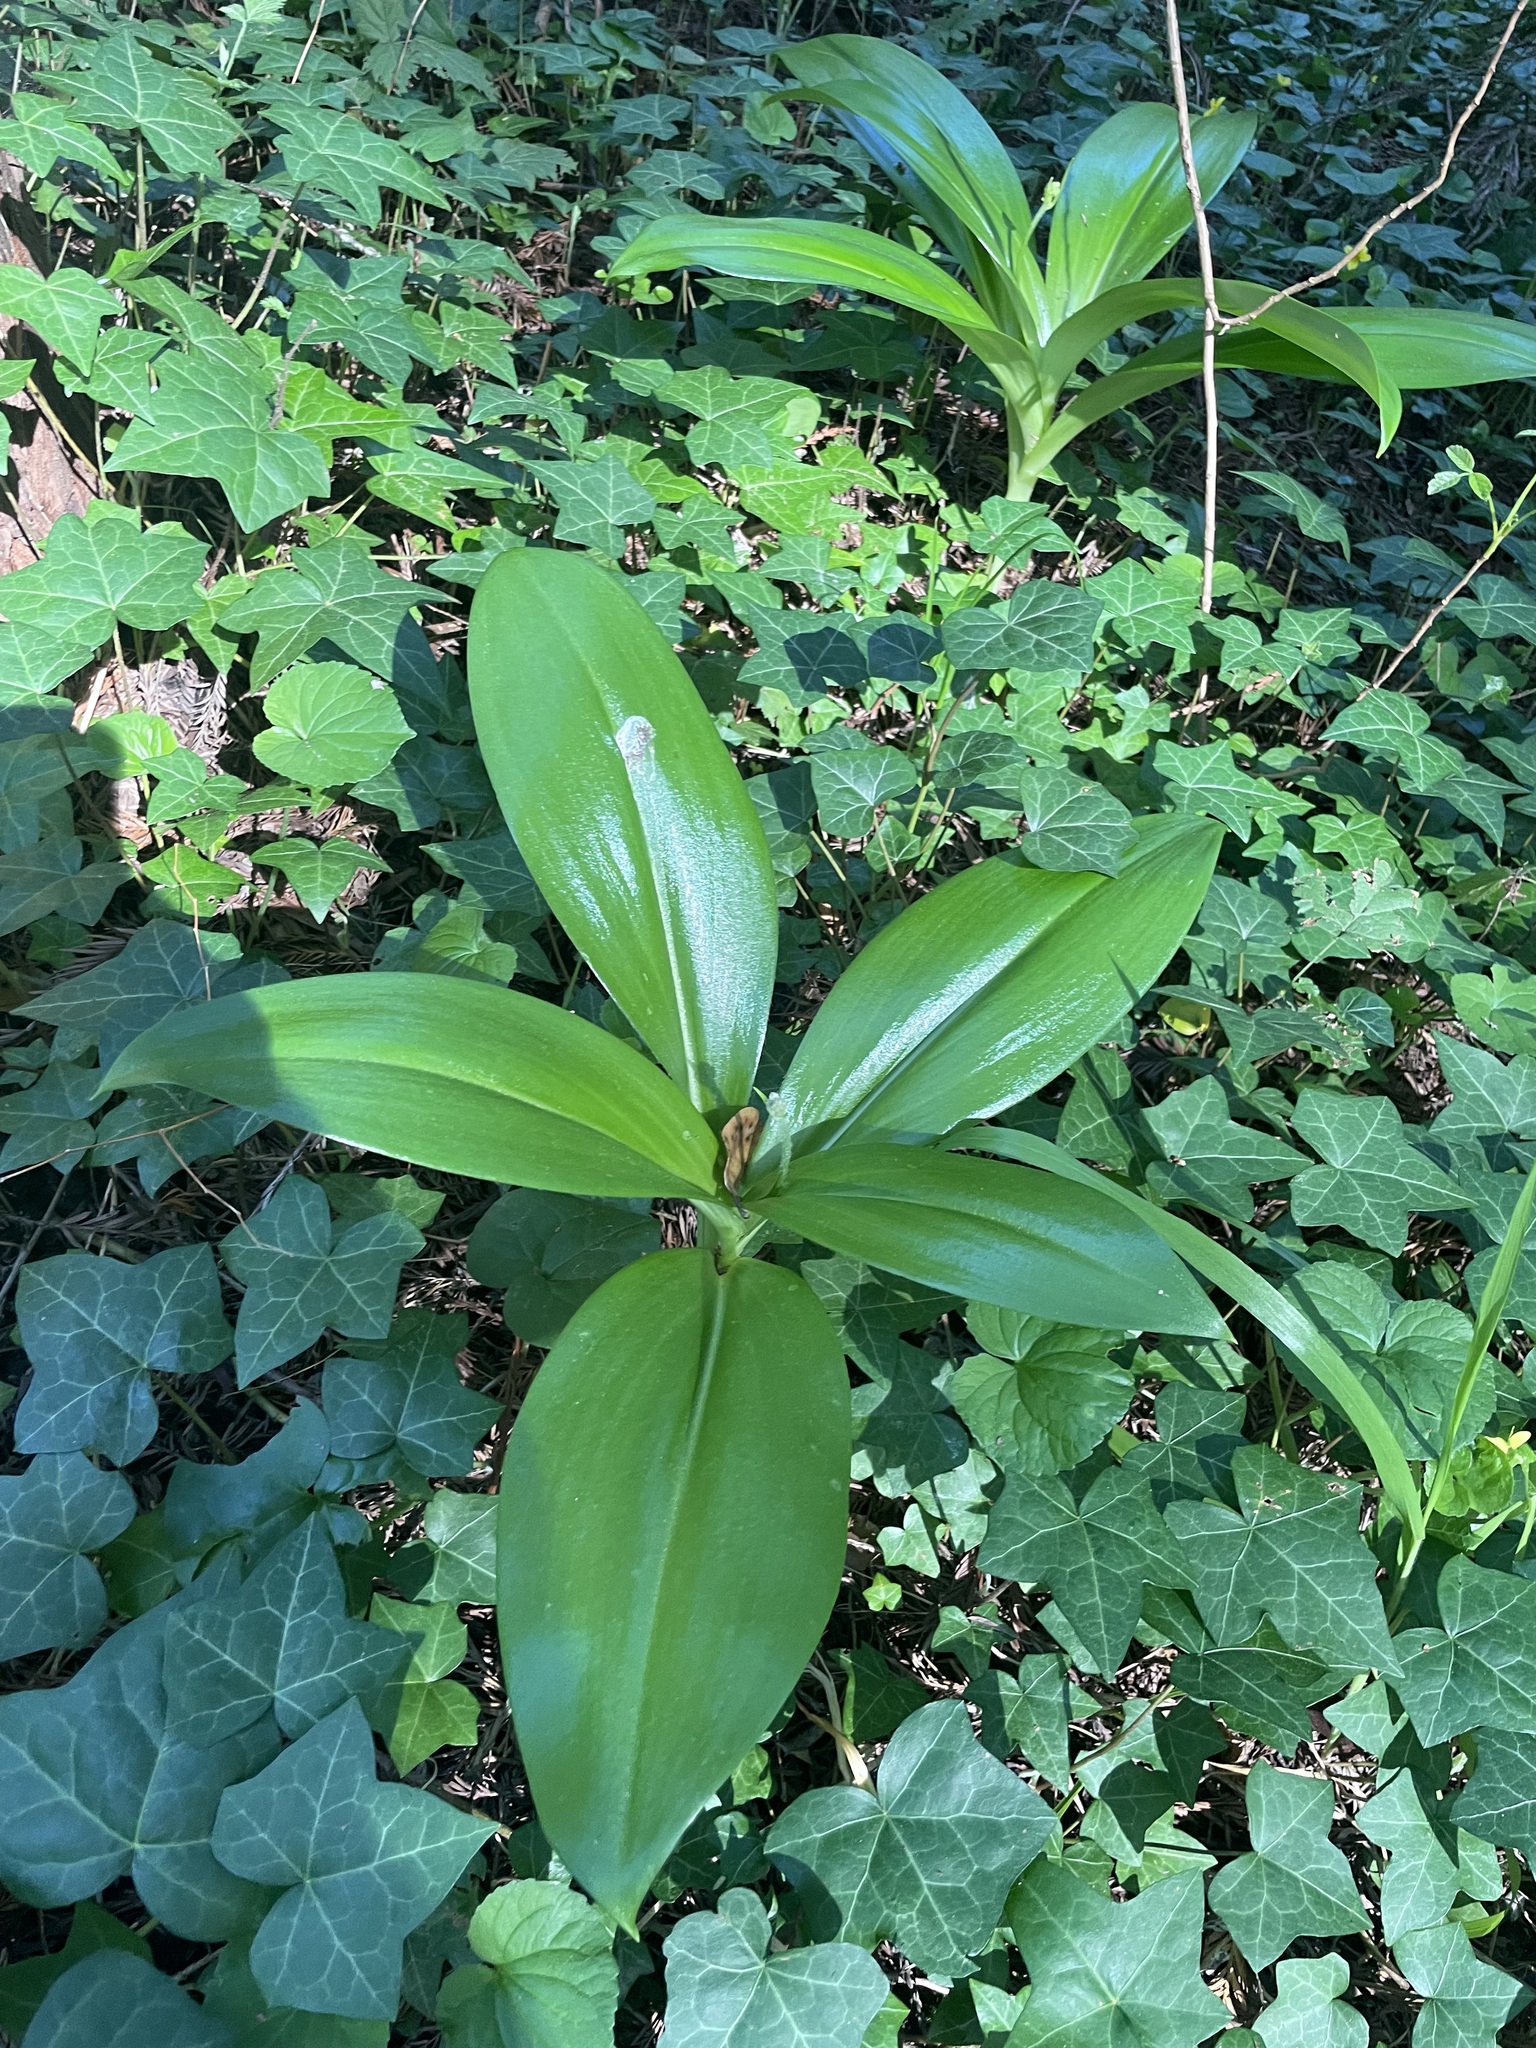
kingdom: Plantae
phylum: Tracheophyta
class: Liliopsida
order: Liliales
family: Liliaceae
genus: Clintonia
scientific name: Clintonia andrewsiana
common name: Red clintonia
